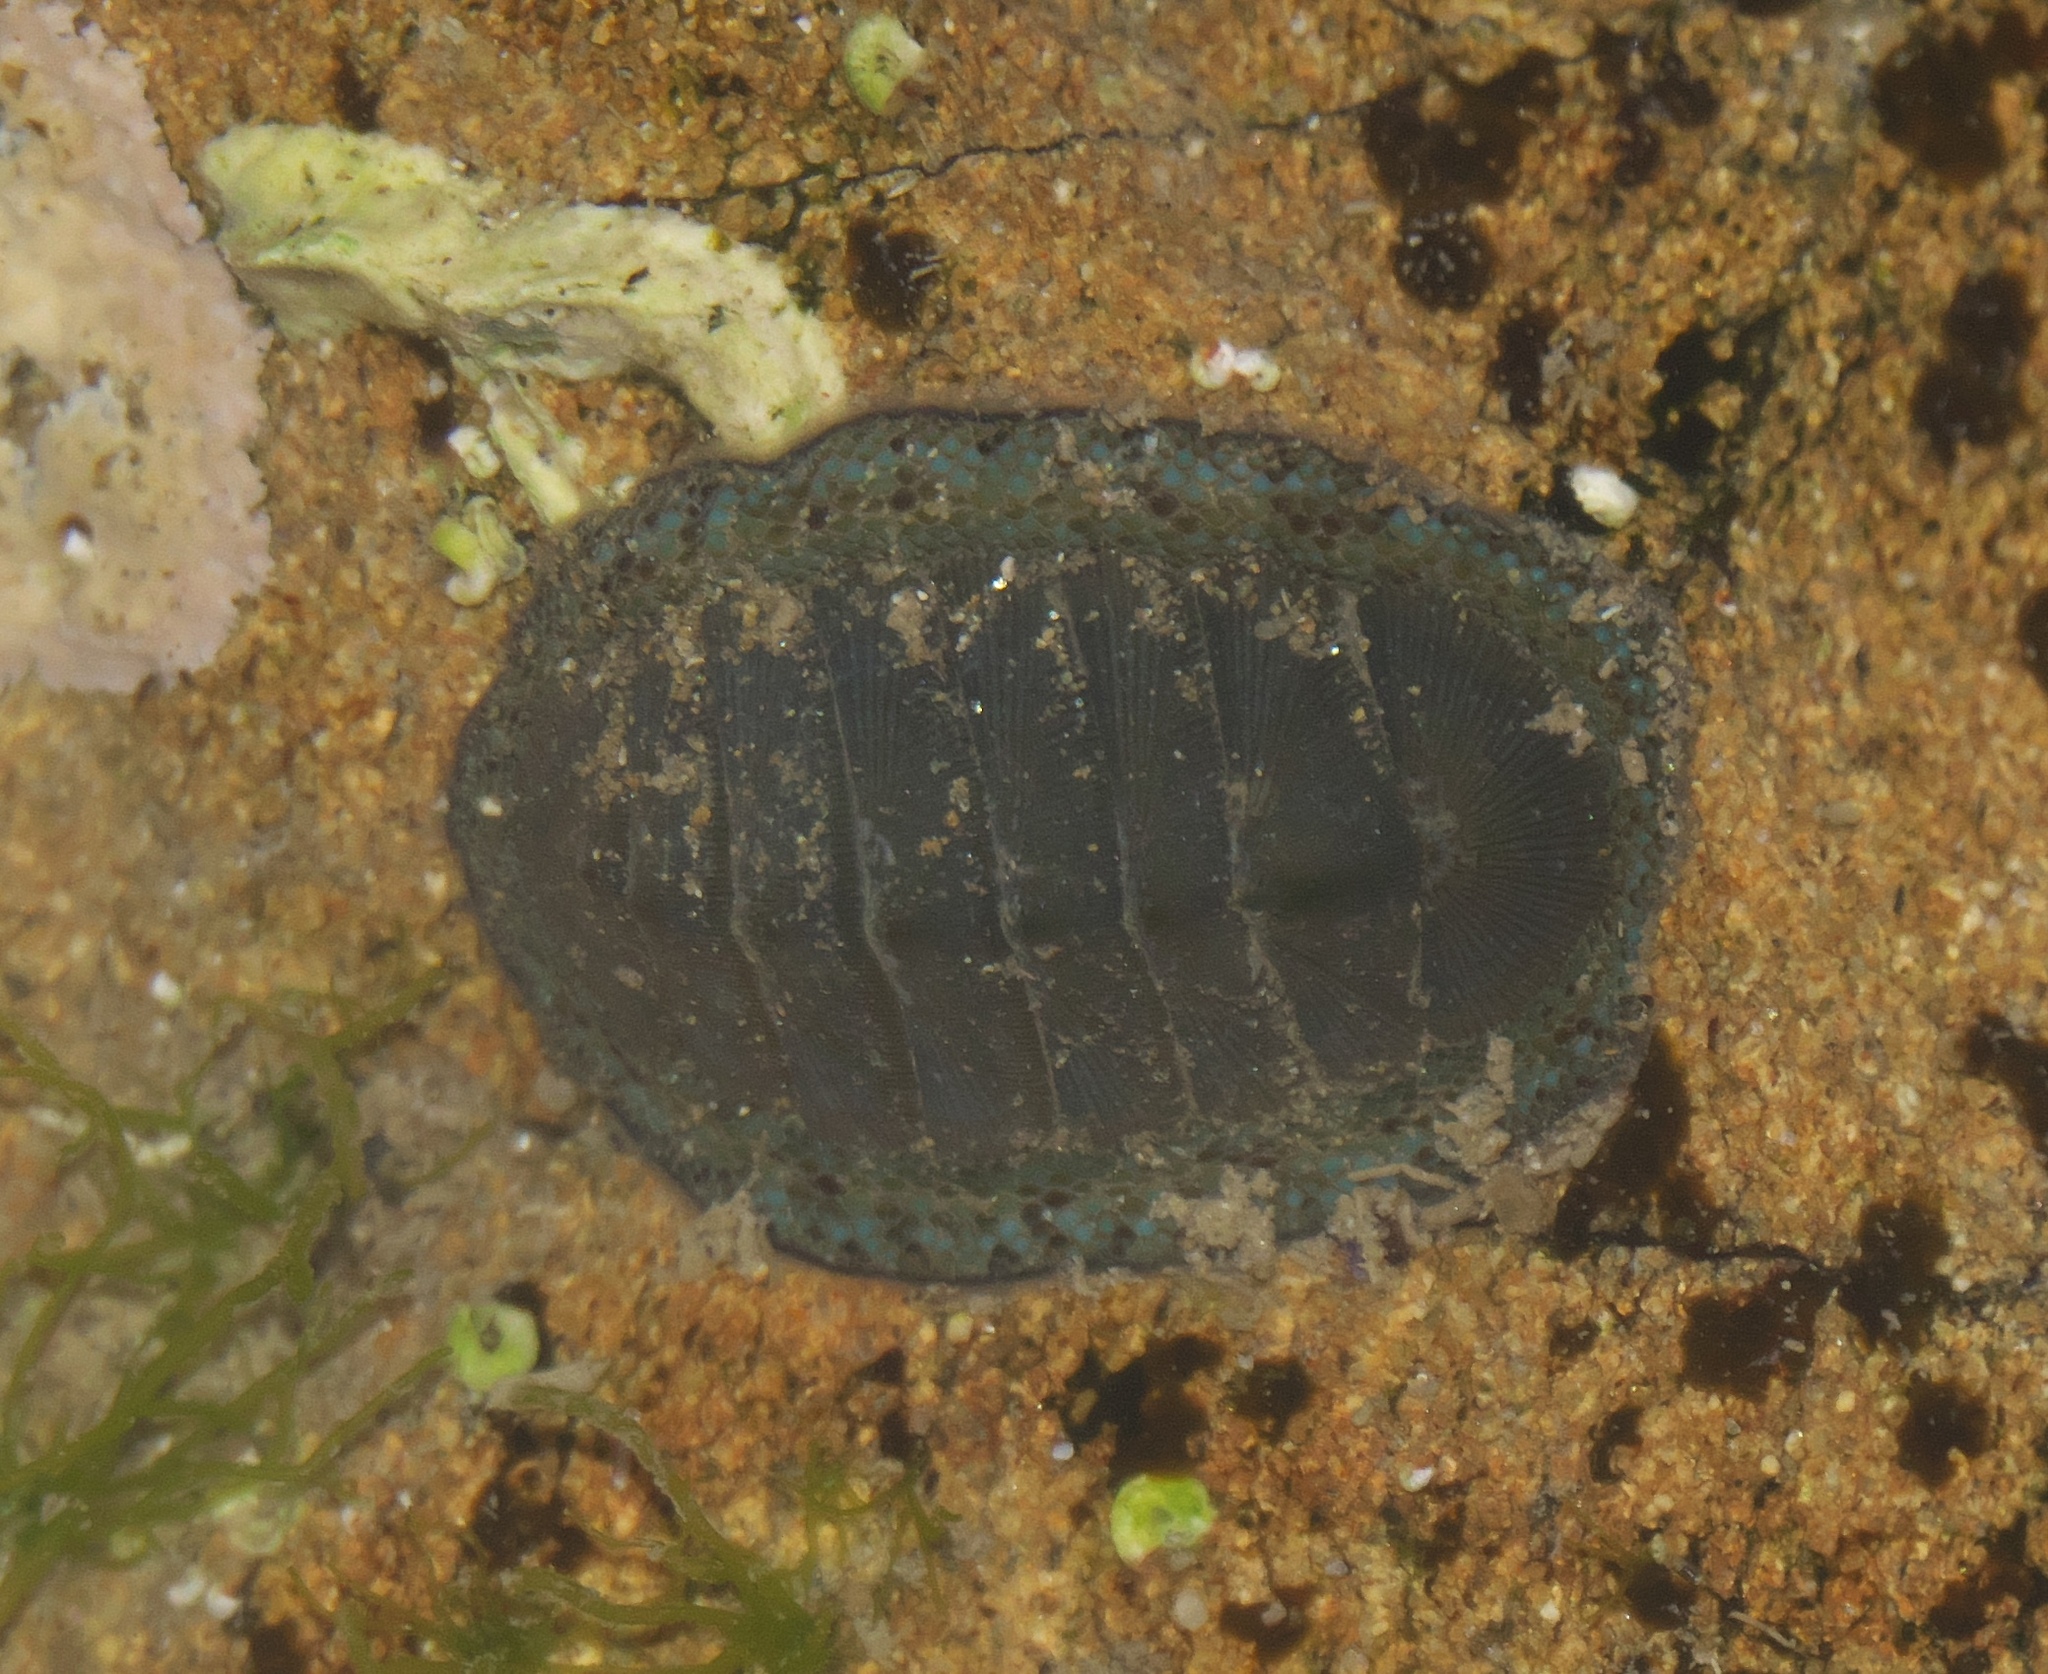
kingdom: Animalia
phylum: Mollusca
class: Polyplacophora
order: Chitonida
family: Chitonidae
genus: Chiton
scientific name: Chiton glaucus
